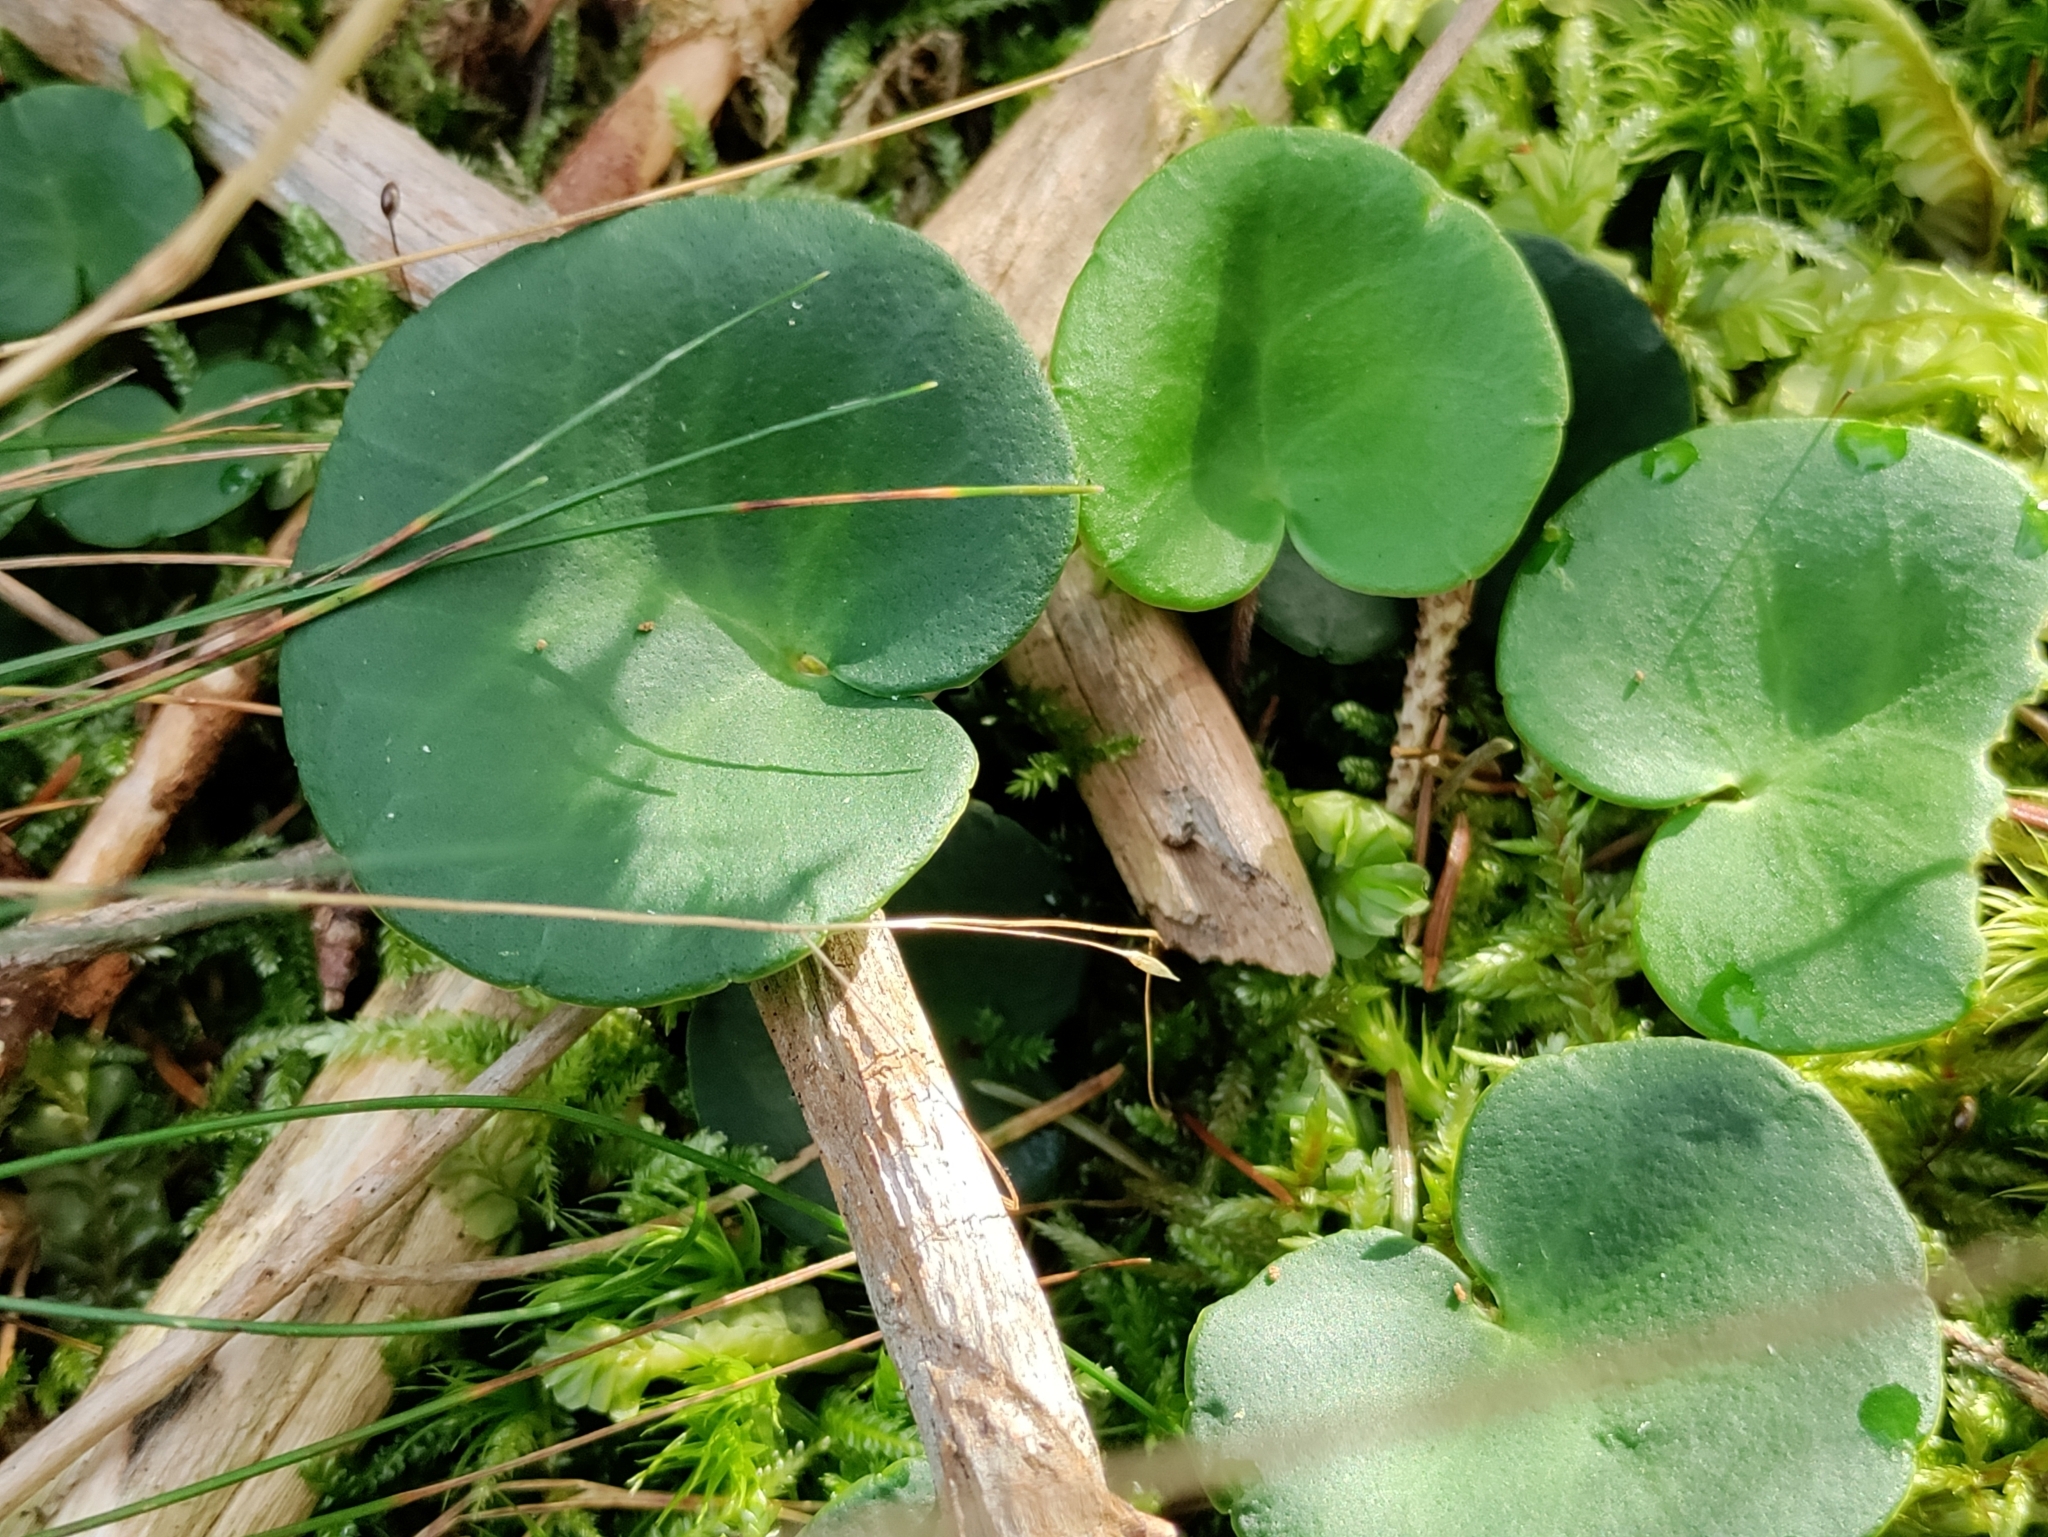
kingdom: Plantae
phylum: Tracheophyta
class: Magnoliopsida
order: Ericales
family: Primulaceae
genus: Soldanella
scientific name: Soldanella montana
